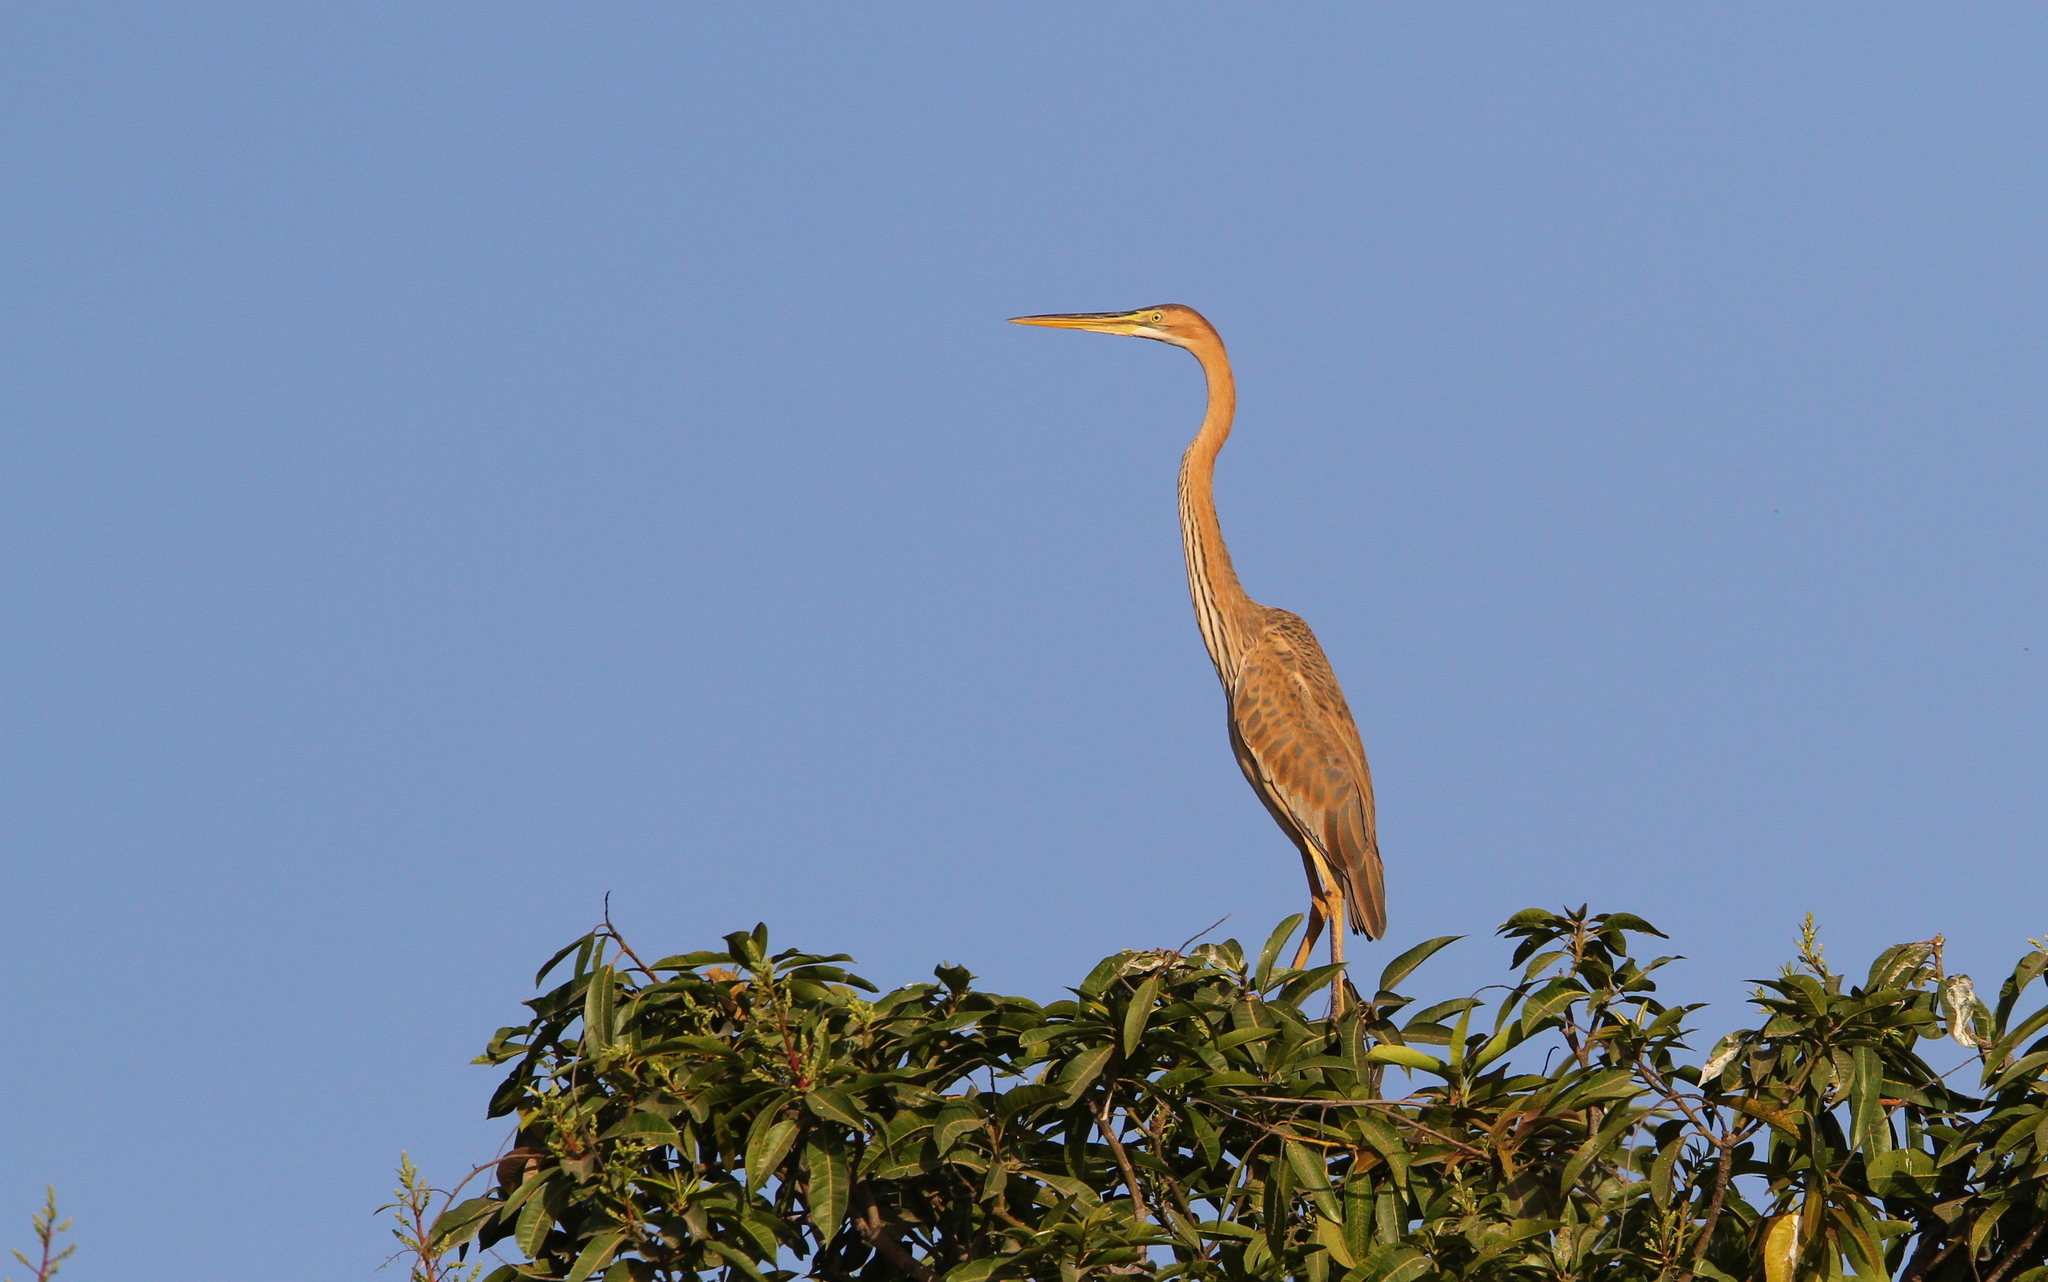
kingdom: Animalia
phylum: Chordata
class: Aves
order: Pelecaniformes
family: Ardeidae
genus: Ardea
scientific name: Ardea purpurea
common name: Purple heron
